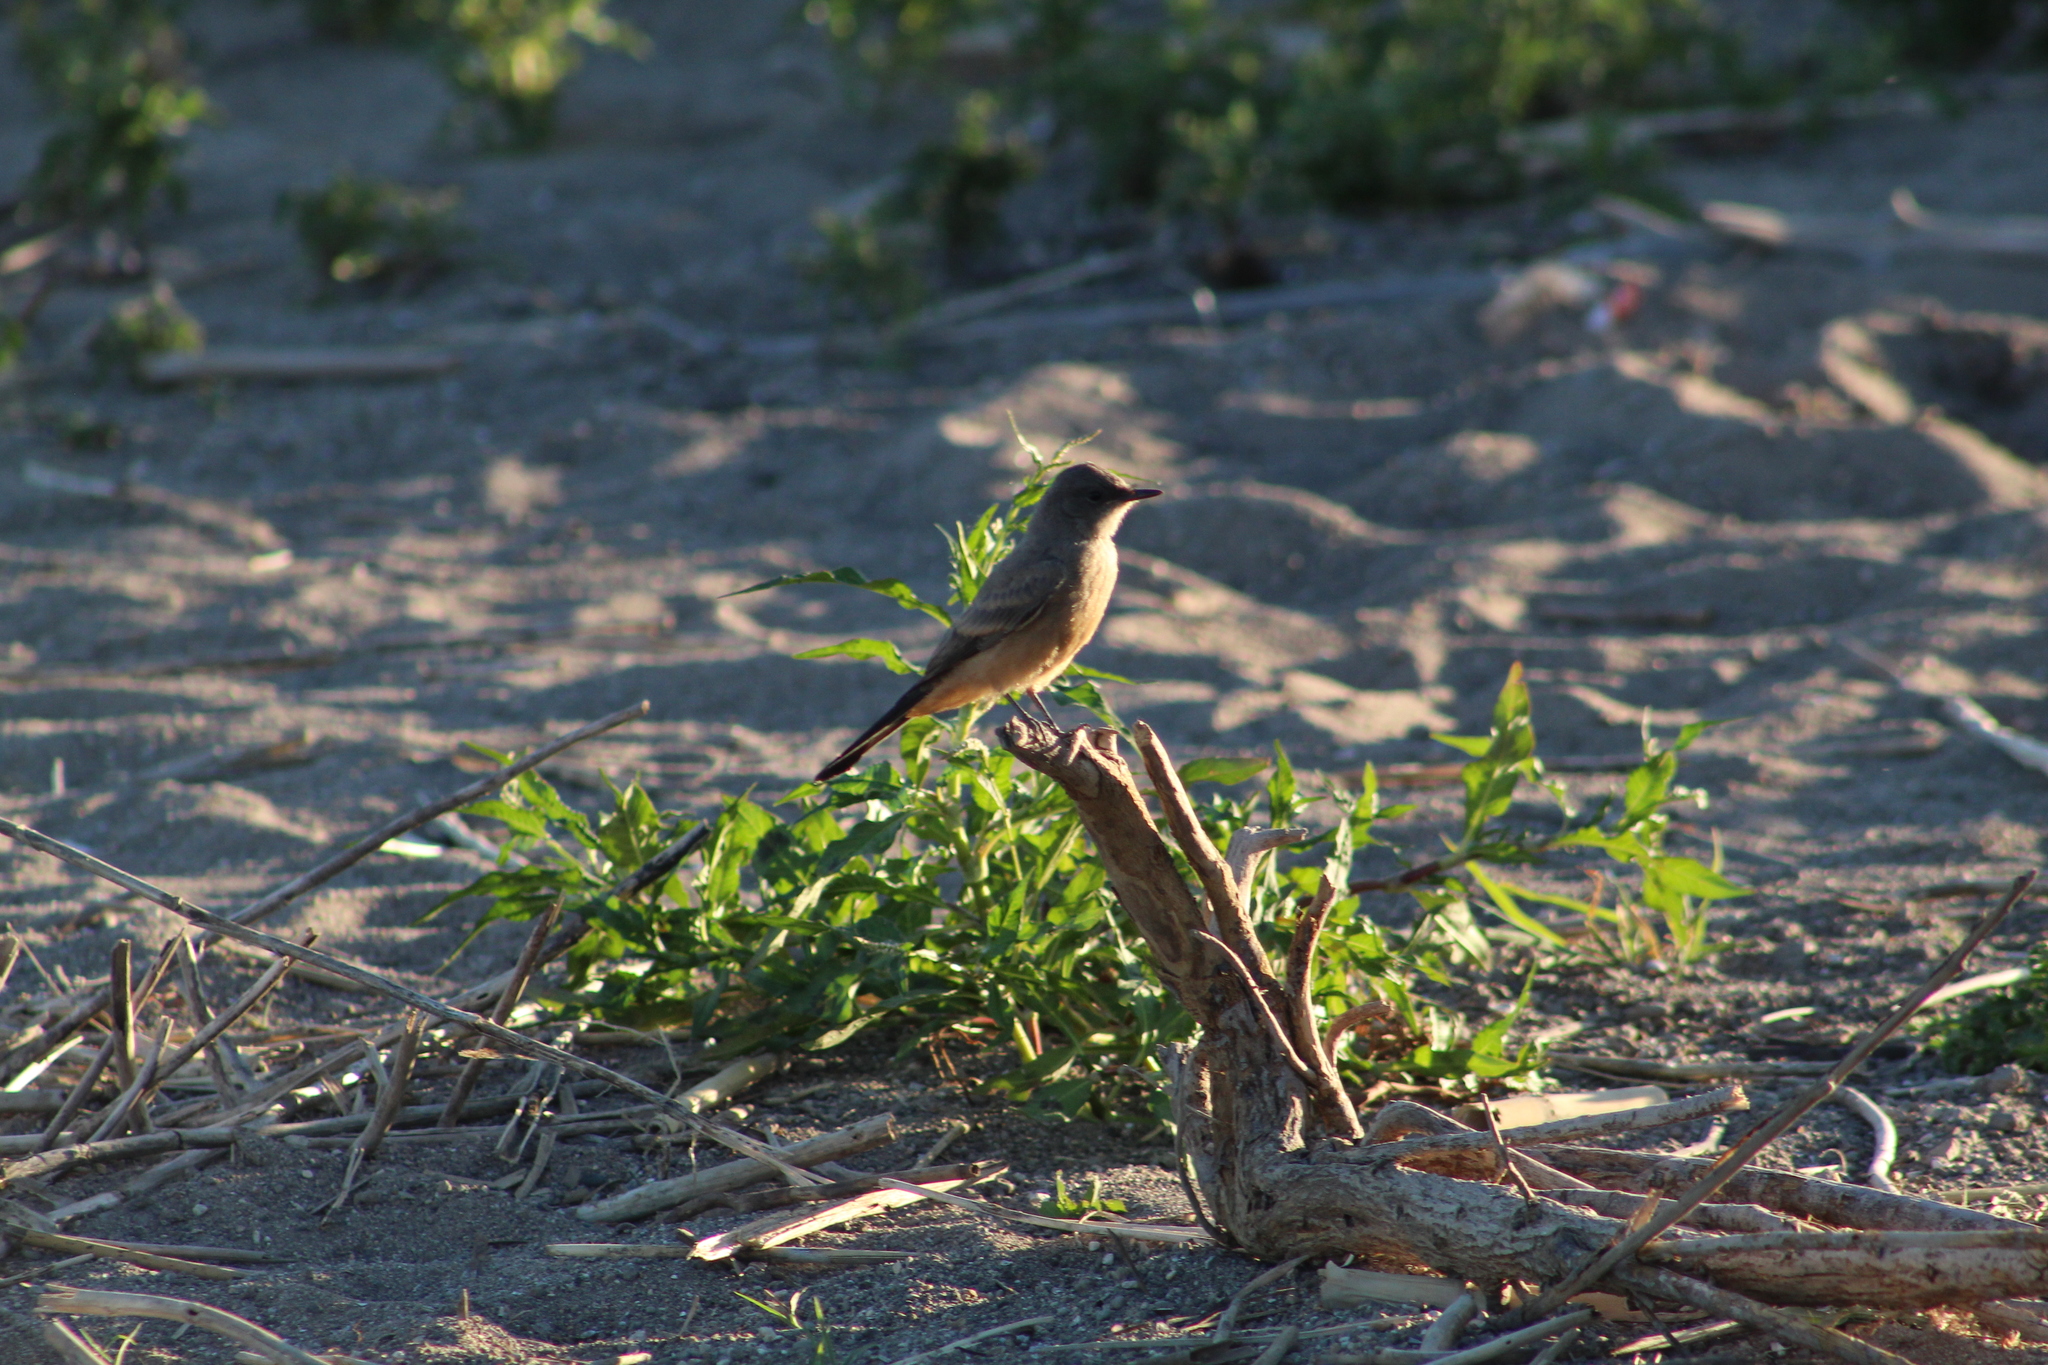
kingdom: Animalia
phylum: Chordata
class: Aves
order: Passeriformes
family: Tyrannidae
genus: Sayornis
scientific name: Sayornis saya
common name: Say's phoebe
